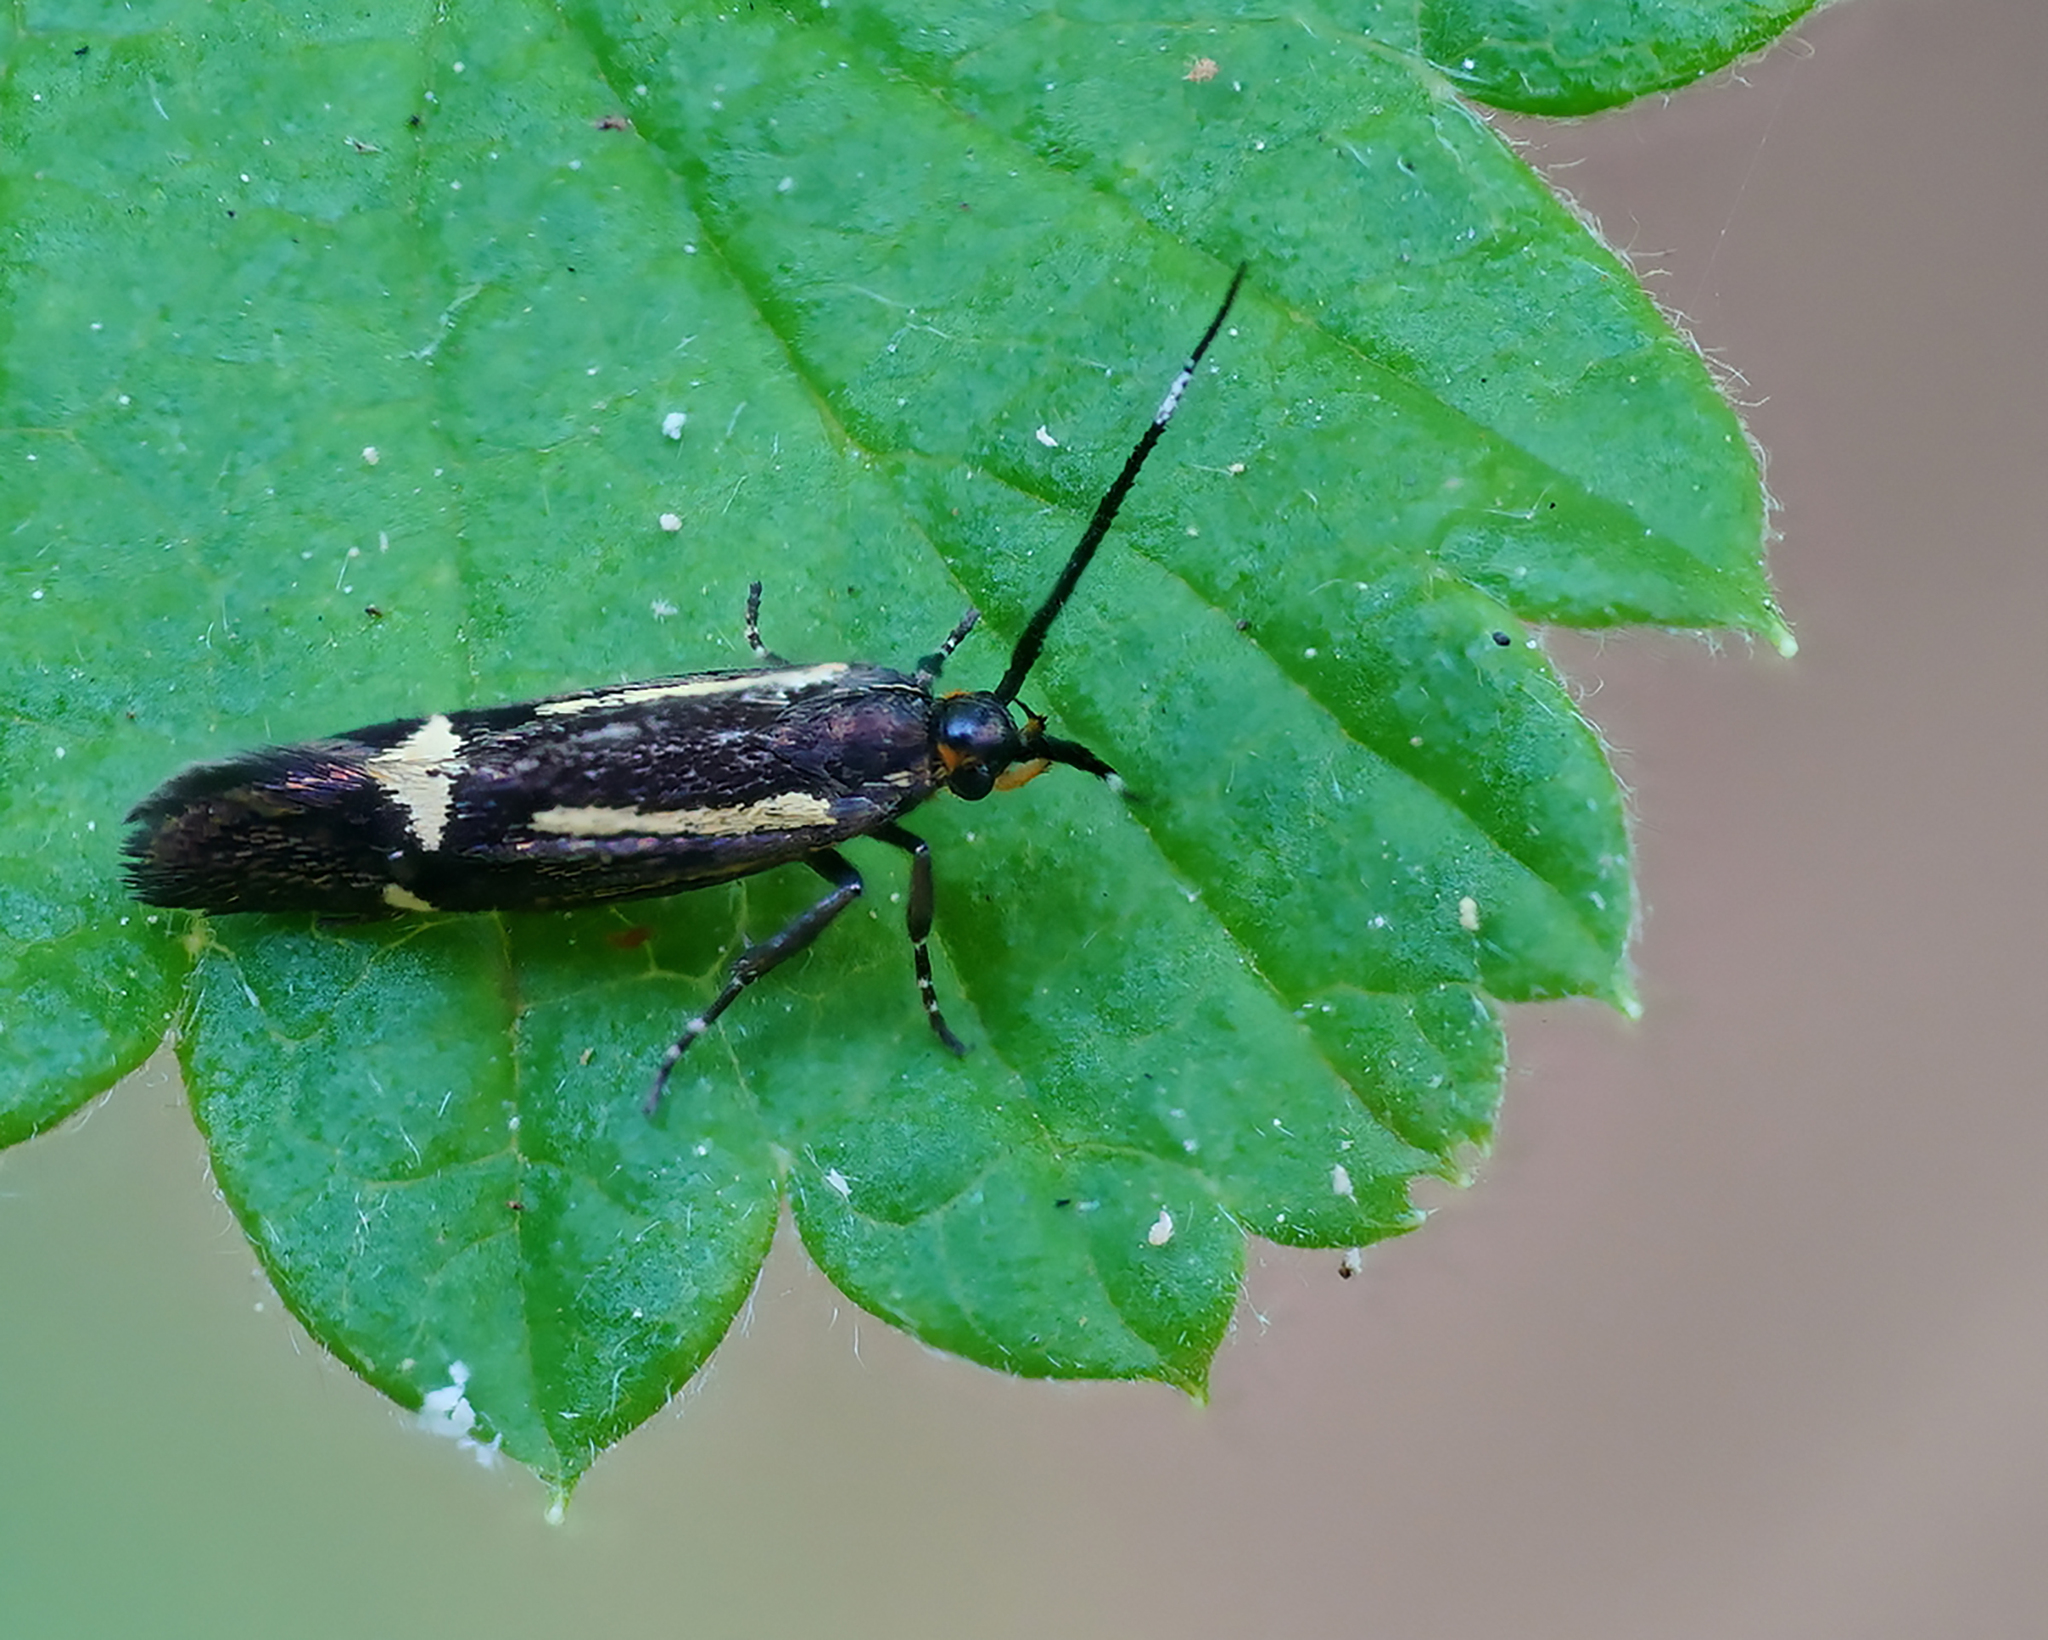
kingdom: Animalia
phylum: Arthropoda
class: Insecta
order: Lepidoptera
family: Oecophoridae
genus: Dafa
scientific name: Dafa Esperia sulphurella
